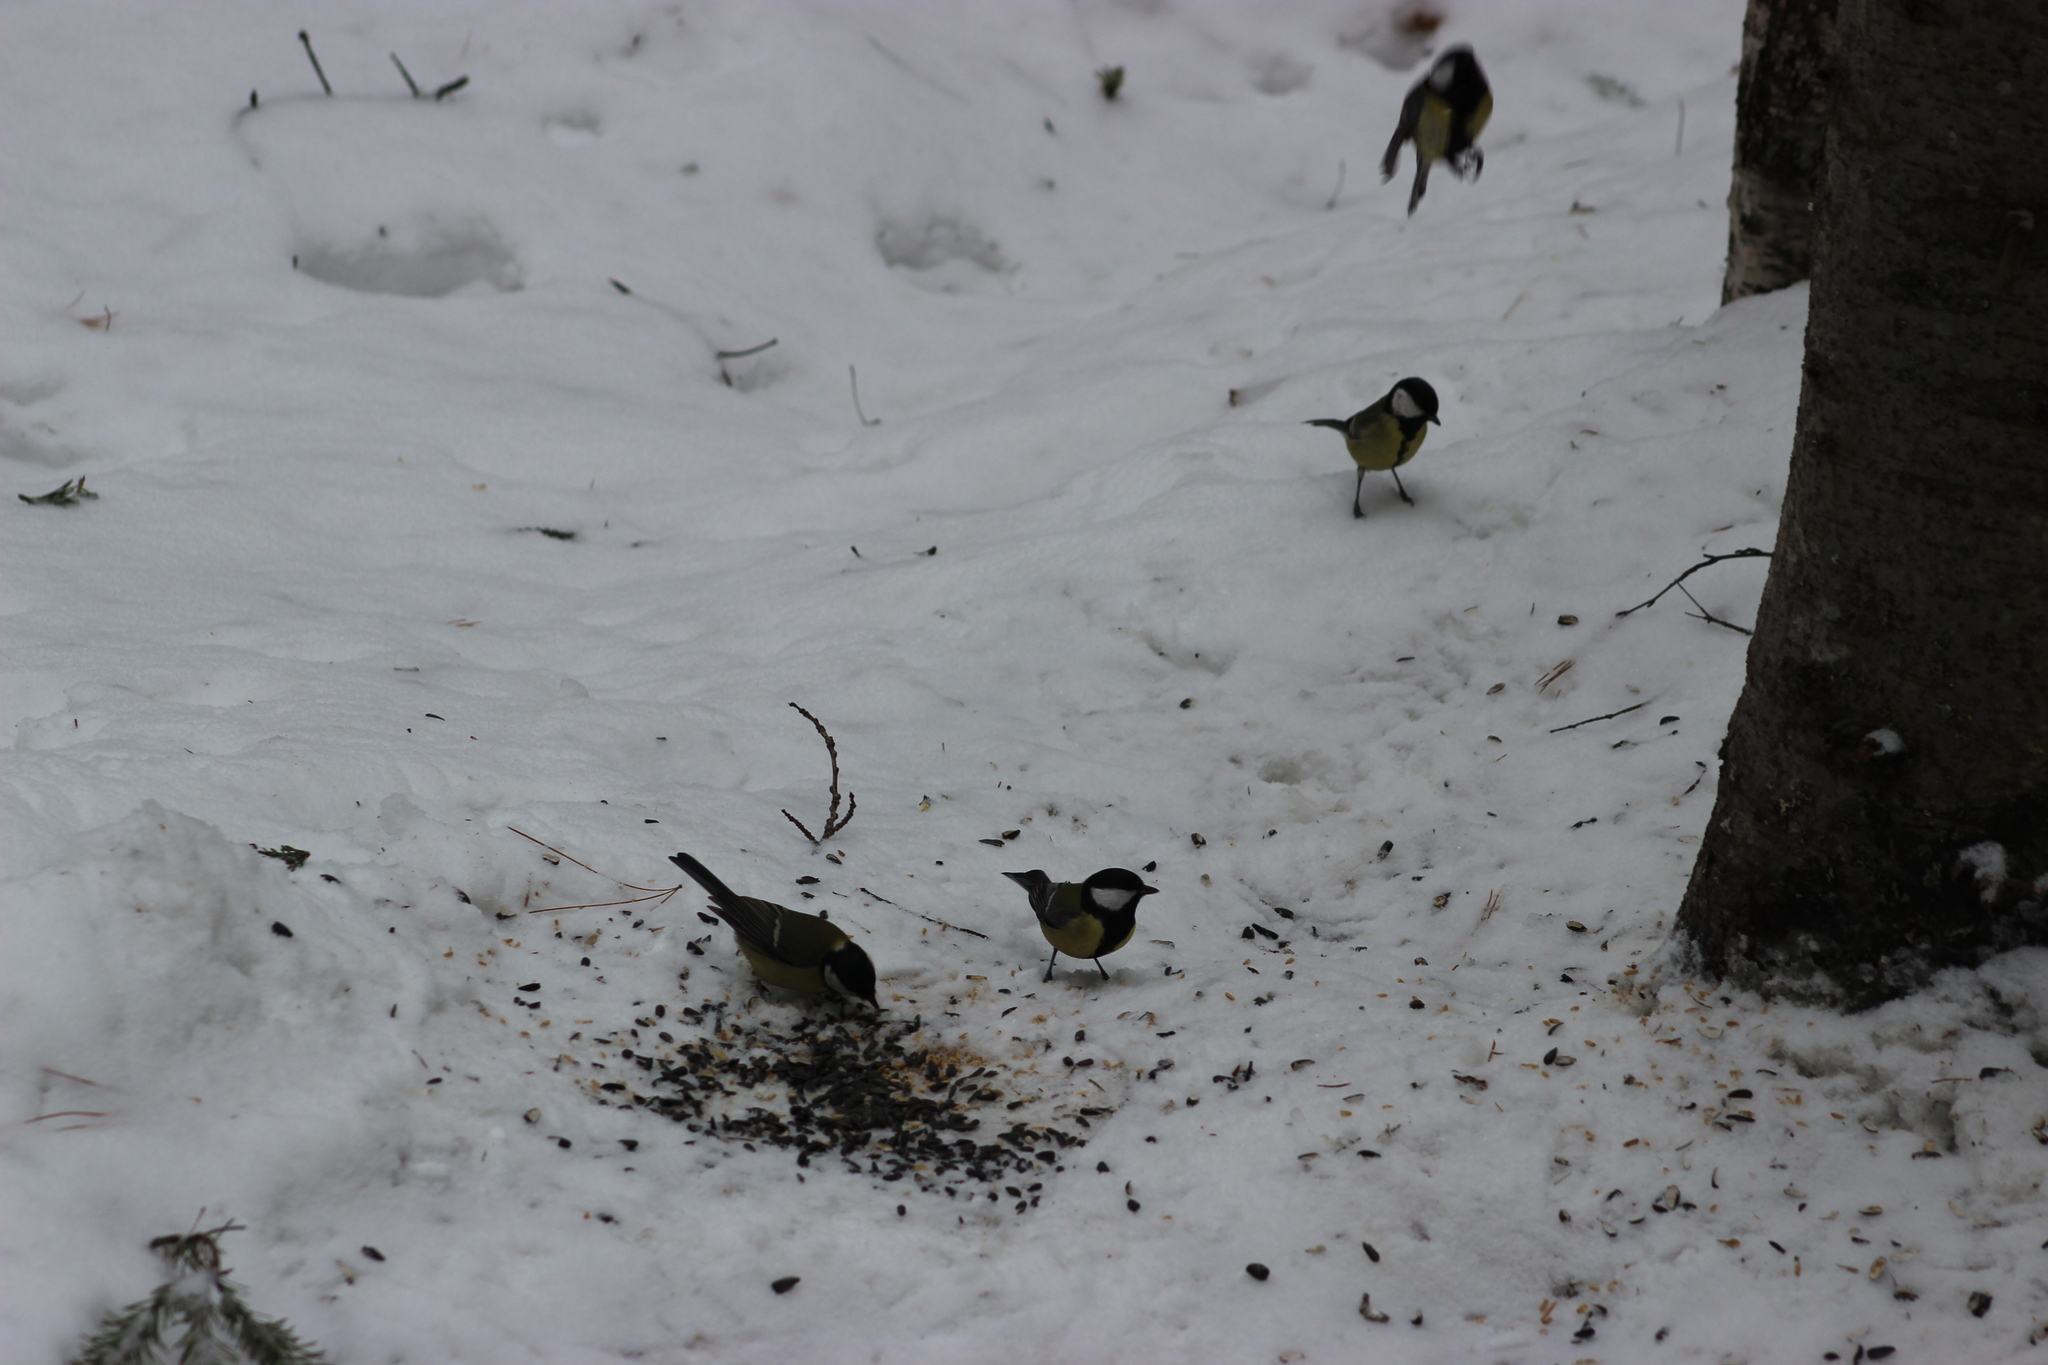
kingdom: Animalia
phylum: Chordata
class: Aves
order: Passeriformes
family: Paridae
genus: Parus
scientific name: Parus major
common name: Great tit
